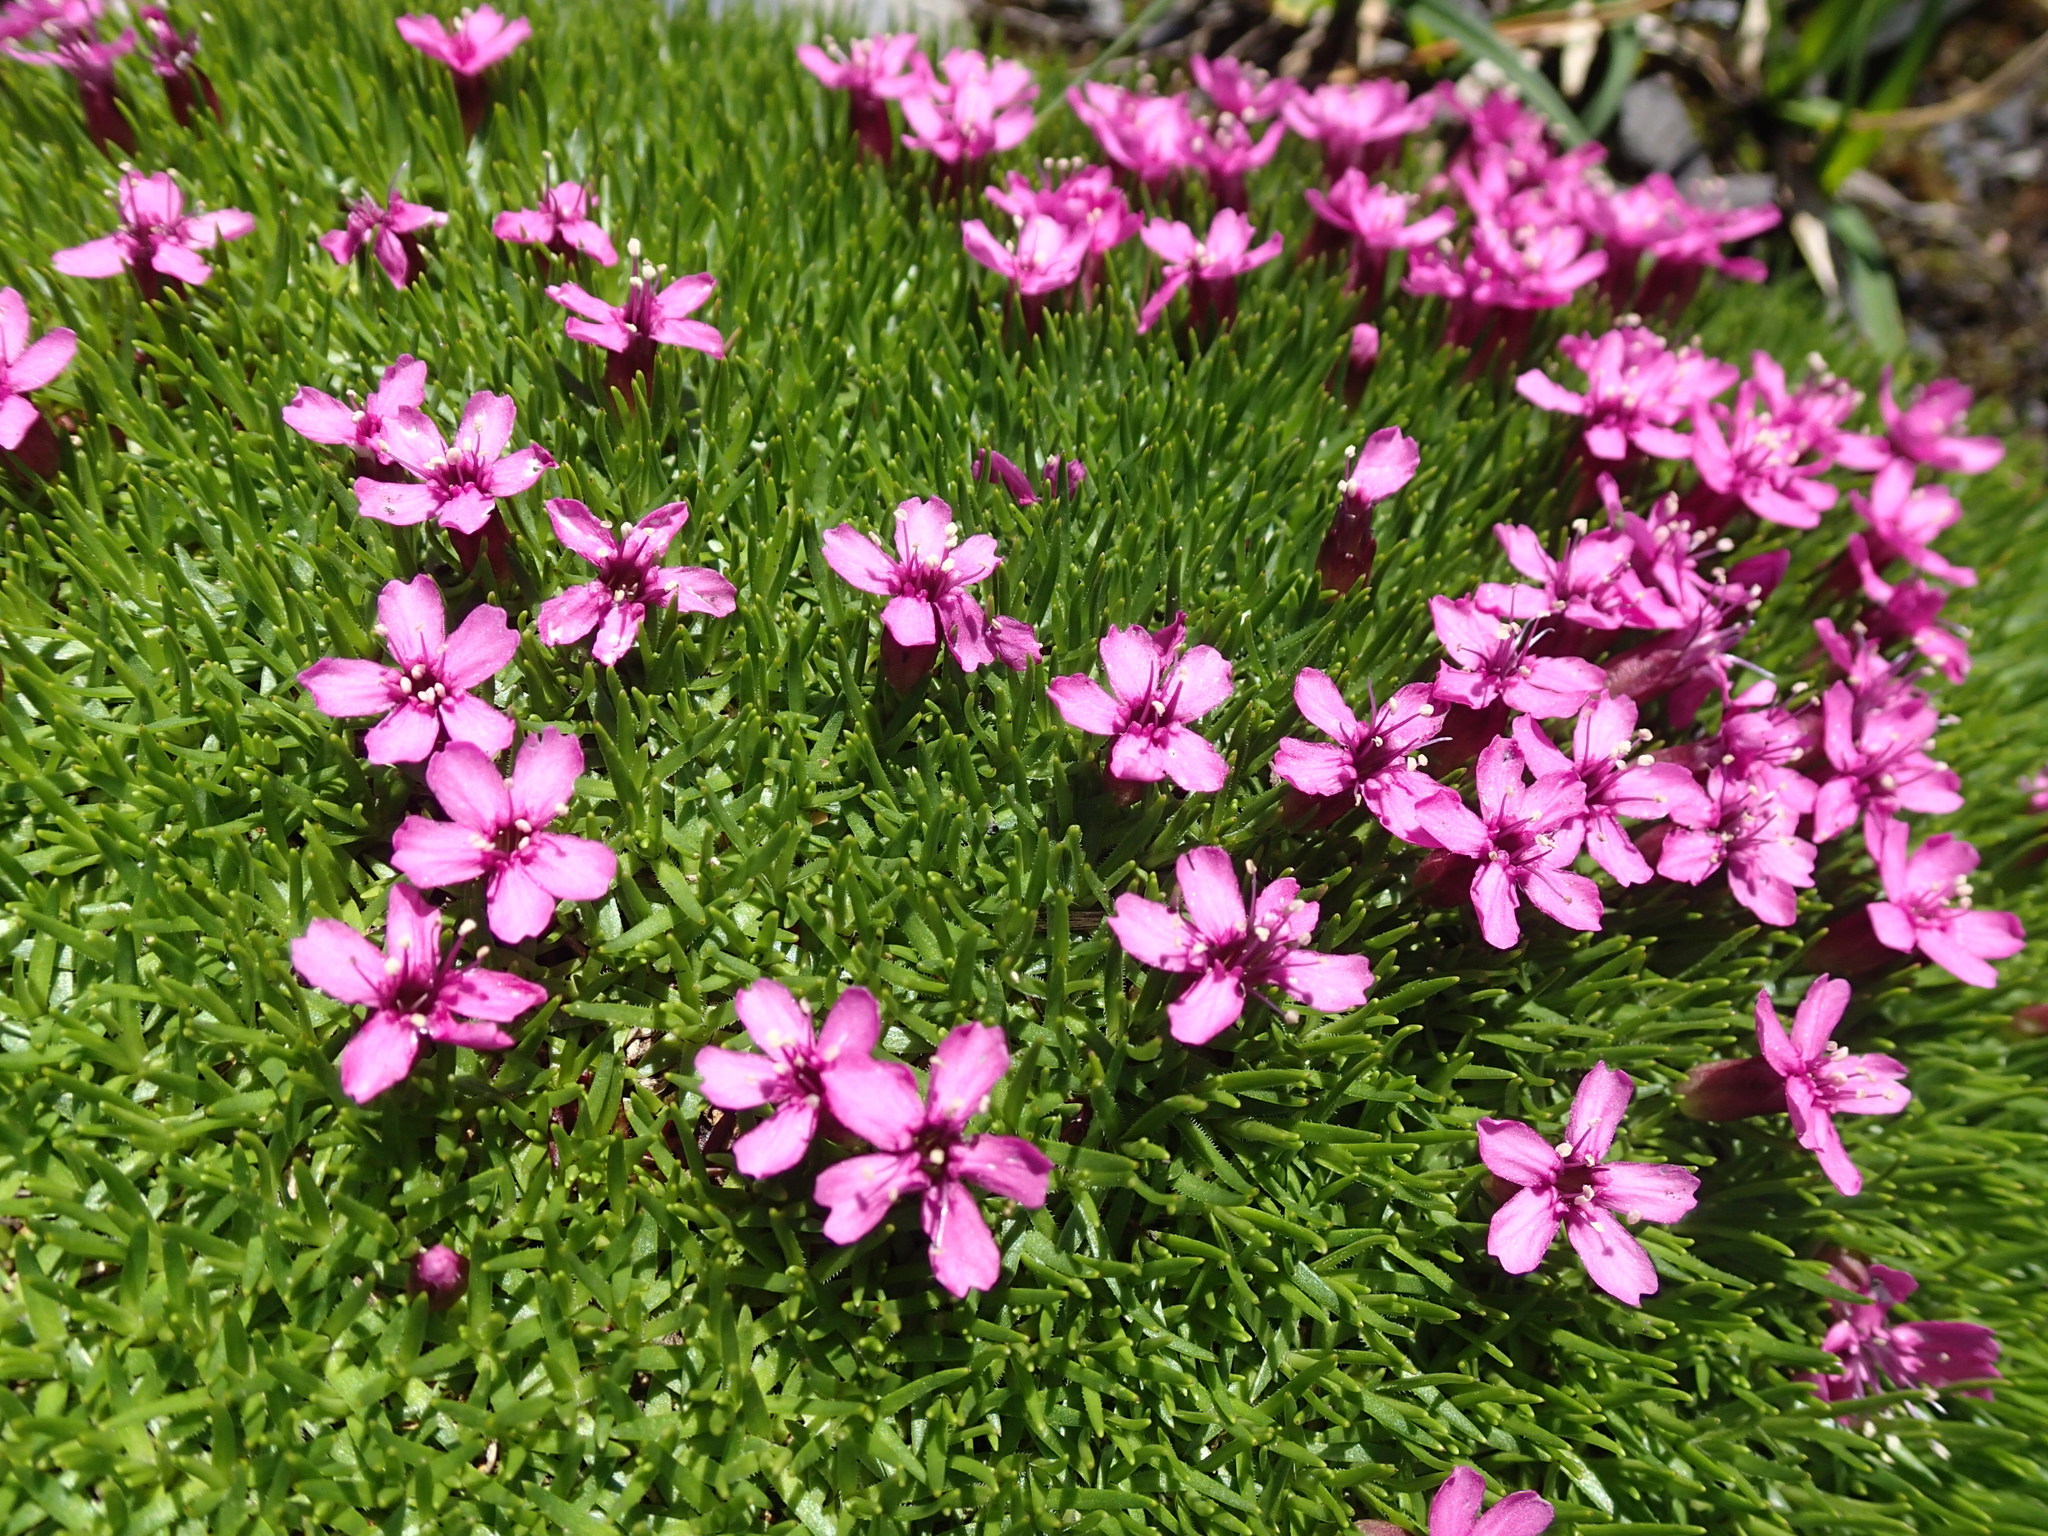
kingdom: Plantae
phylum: Tracheophyta
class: Magnoliopsida
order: Caryophyllales
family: Caryophyllaceae
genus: Silene
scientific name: Silene acaulis
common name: Moss campion
